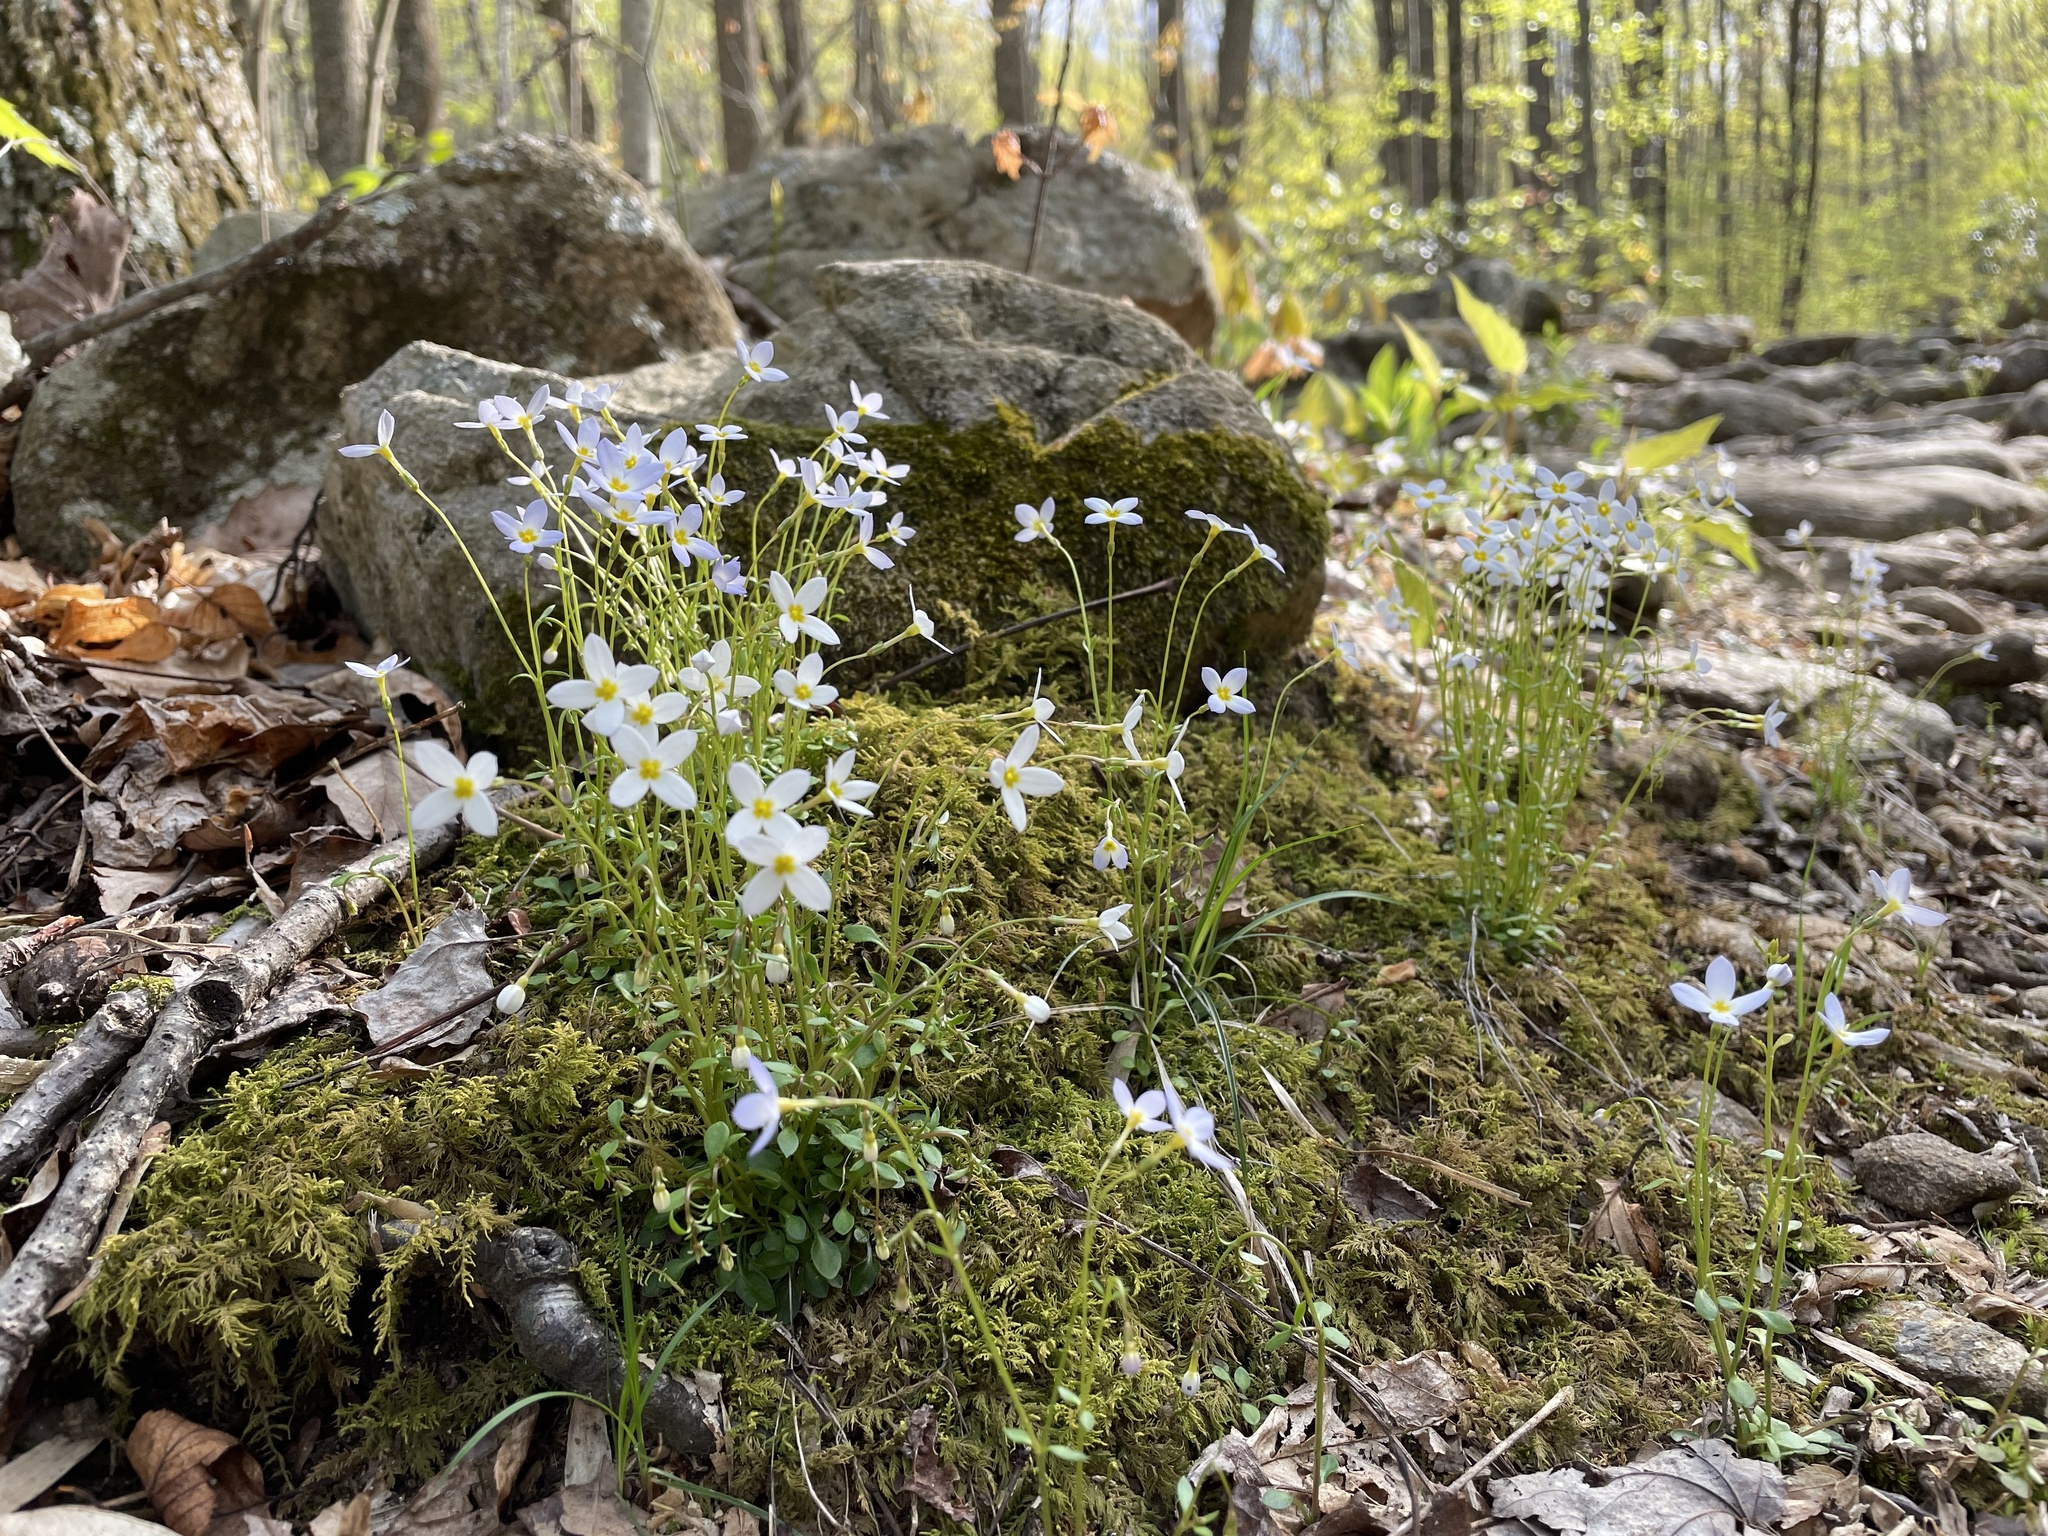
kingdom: Plantae
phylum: Tracheophyta
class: Magnoliopsida
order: Gentianales
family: Rubiaceae
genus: Houstonia
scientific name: Houstonia caerulea
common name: Bluets
